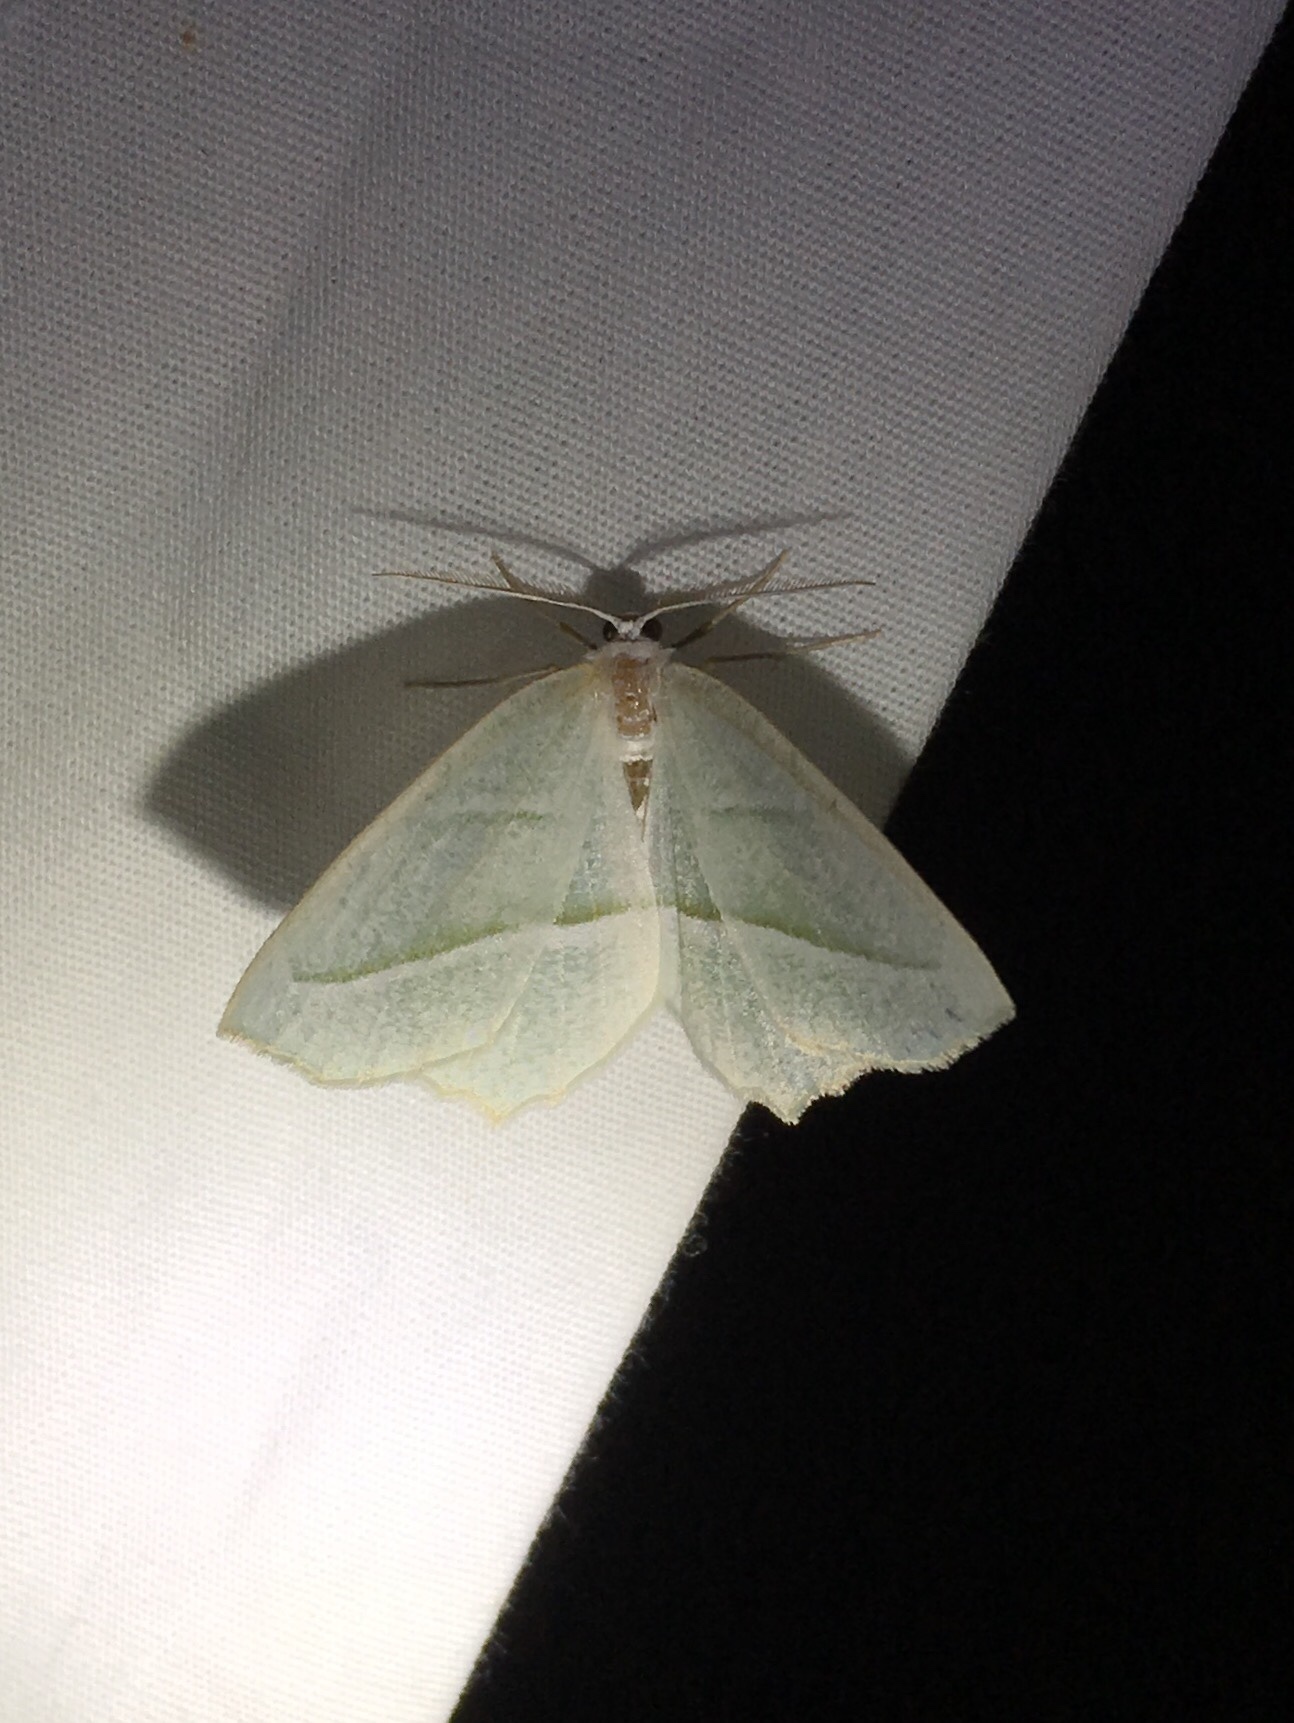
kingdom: Animalia
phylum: Arthropoda
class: Insecta
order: Lepidoptera
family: Geometridae
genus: Campaea
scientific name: Campaea perlata
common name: Fringed looper
